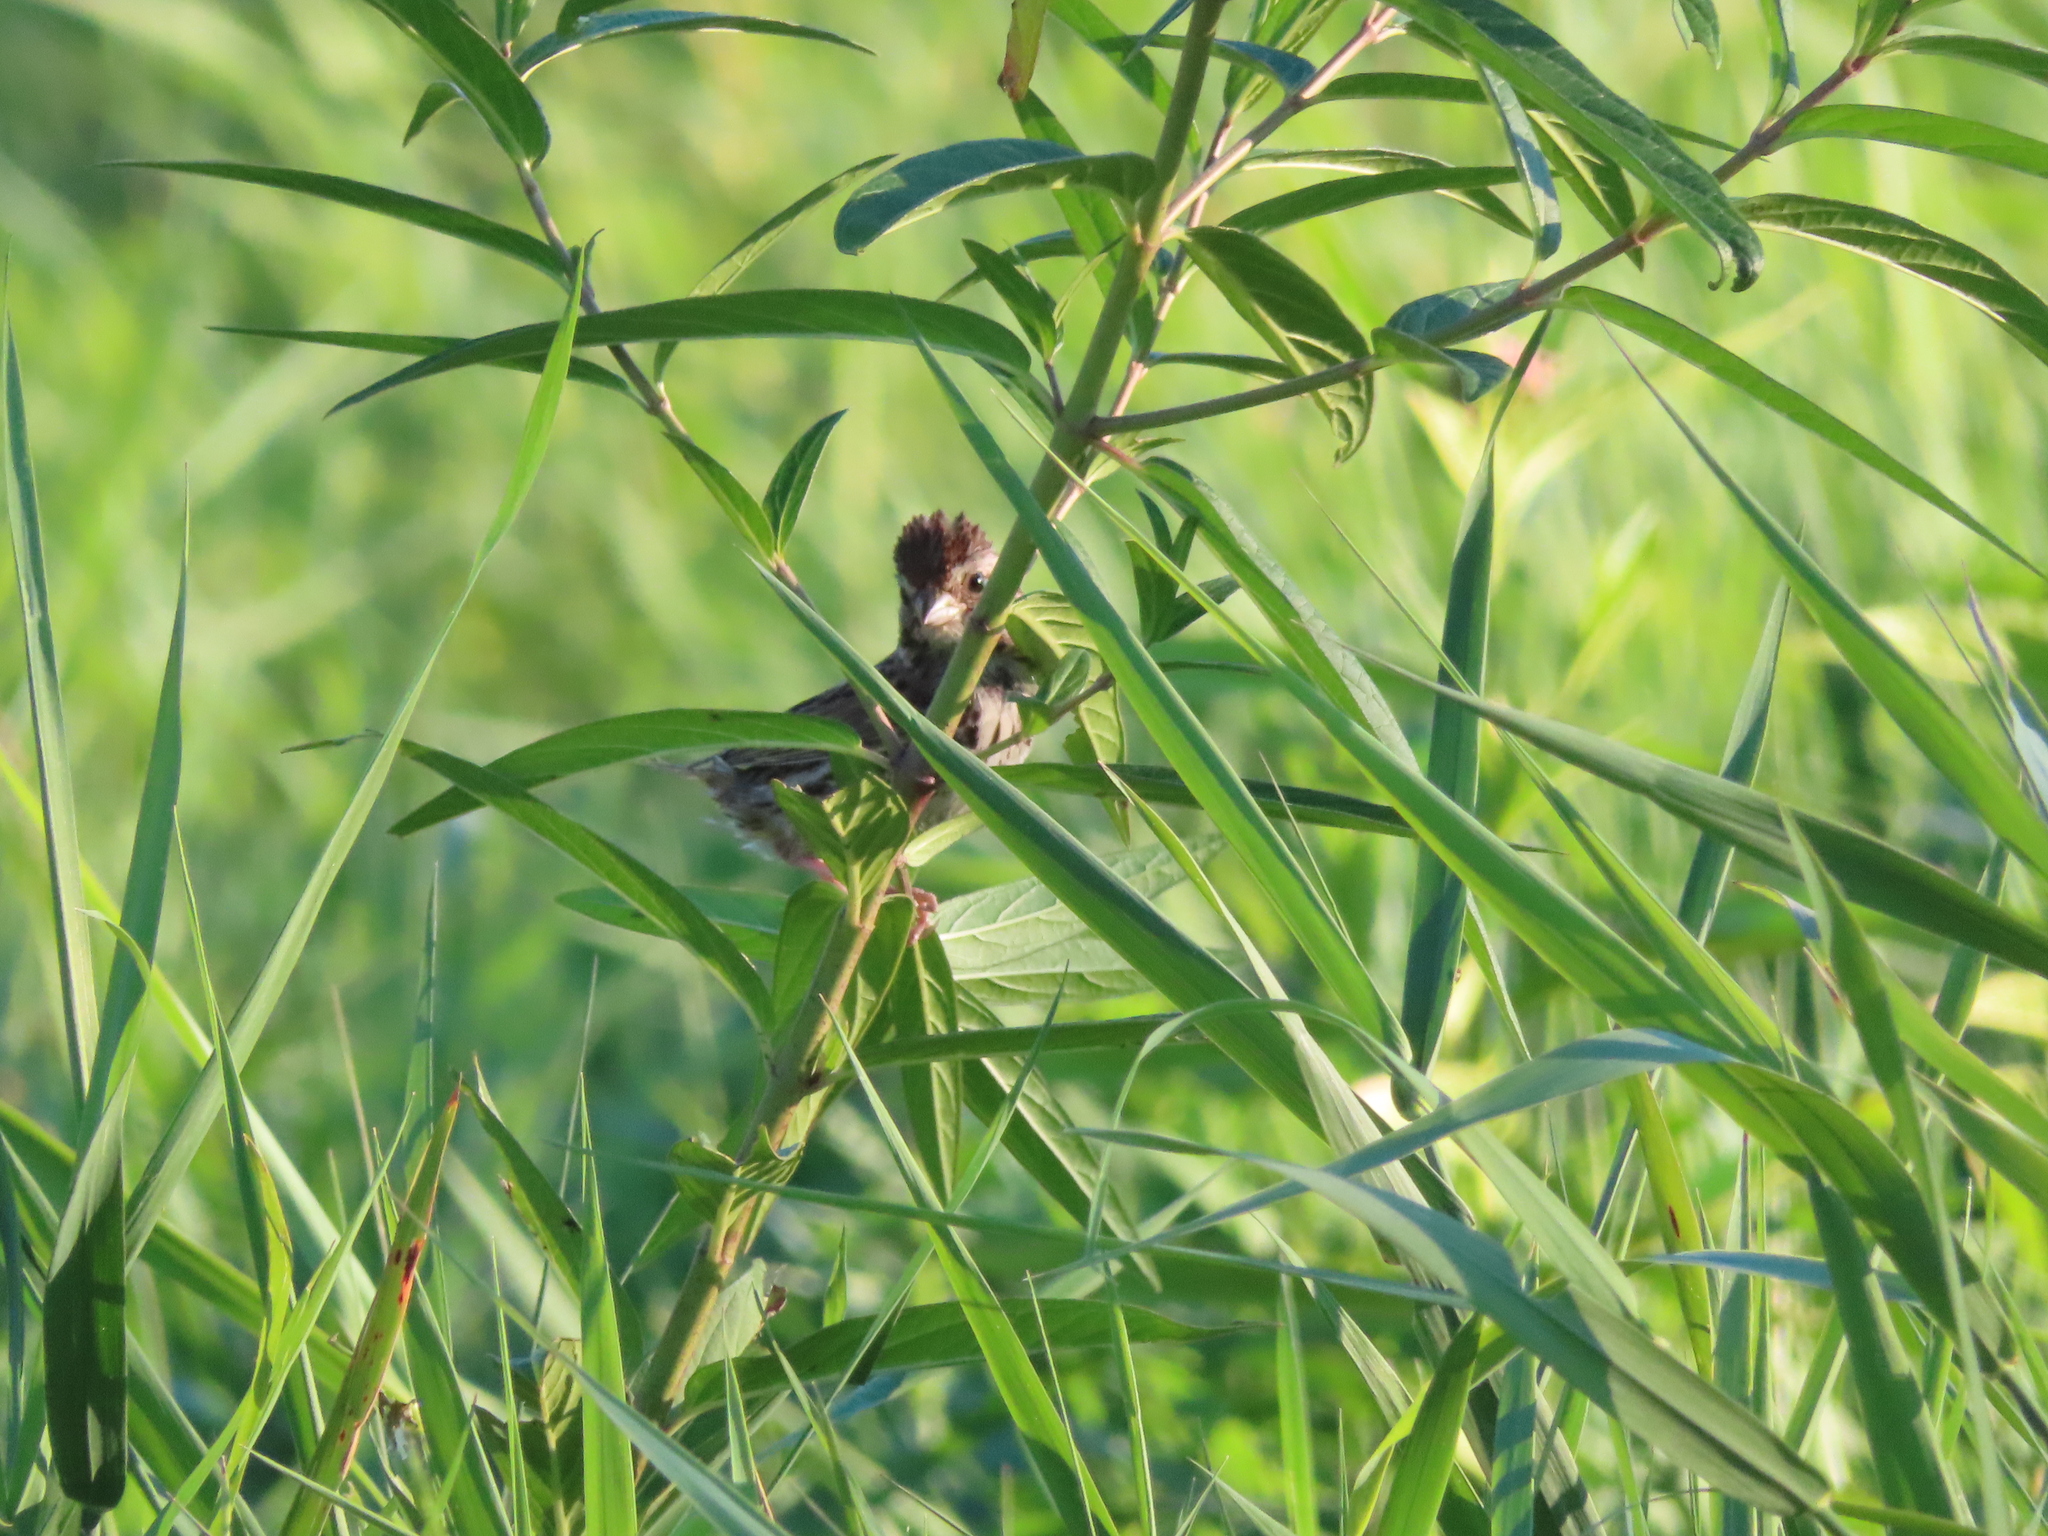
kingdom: Animalia
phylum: Chordata
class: Aves
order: Passeriformes
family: Passerellidae
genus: Melospiza
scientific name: Melospiza melodia
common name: Song sparrow
